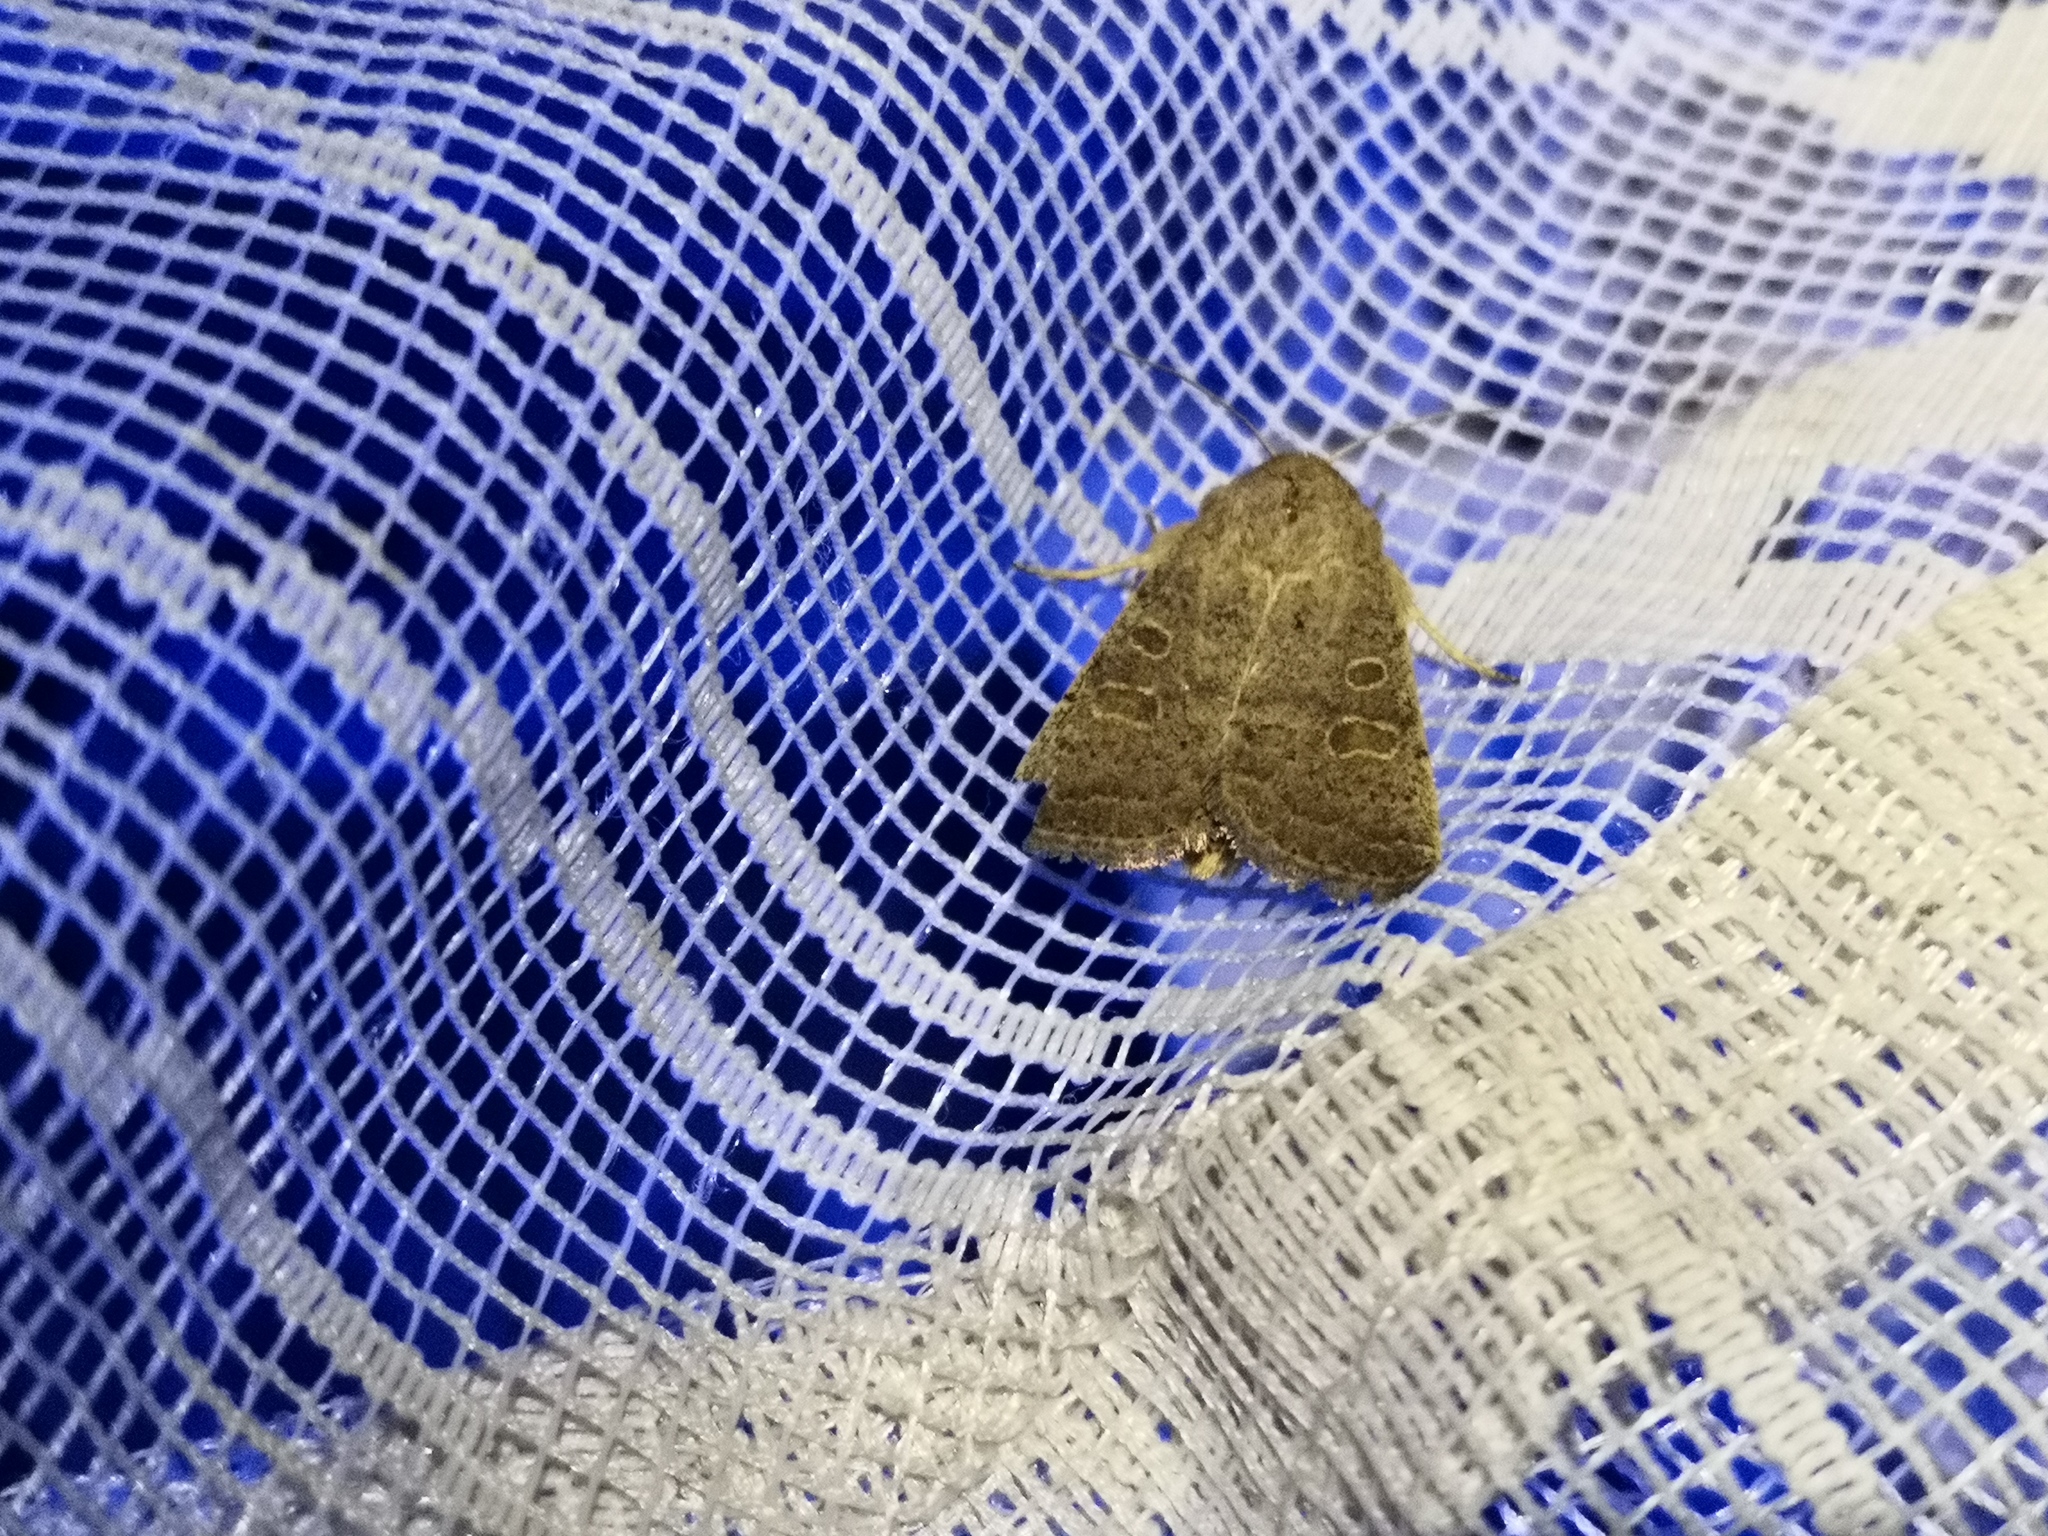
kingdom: Animalia
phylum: Arthropoda
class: Insecta
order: Lepidoptera
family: Noctuidae
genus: Hoplodrina
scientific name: Hoplodrina ambigua
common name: Vine's rustic
